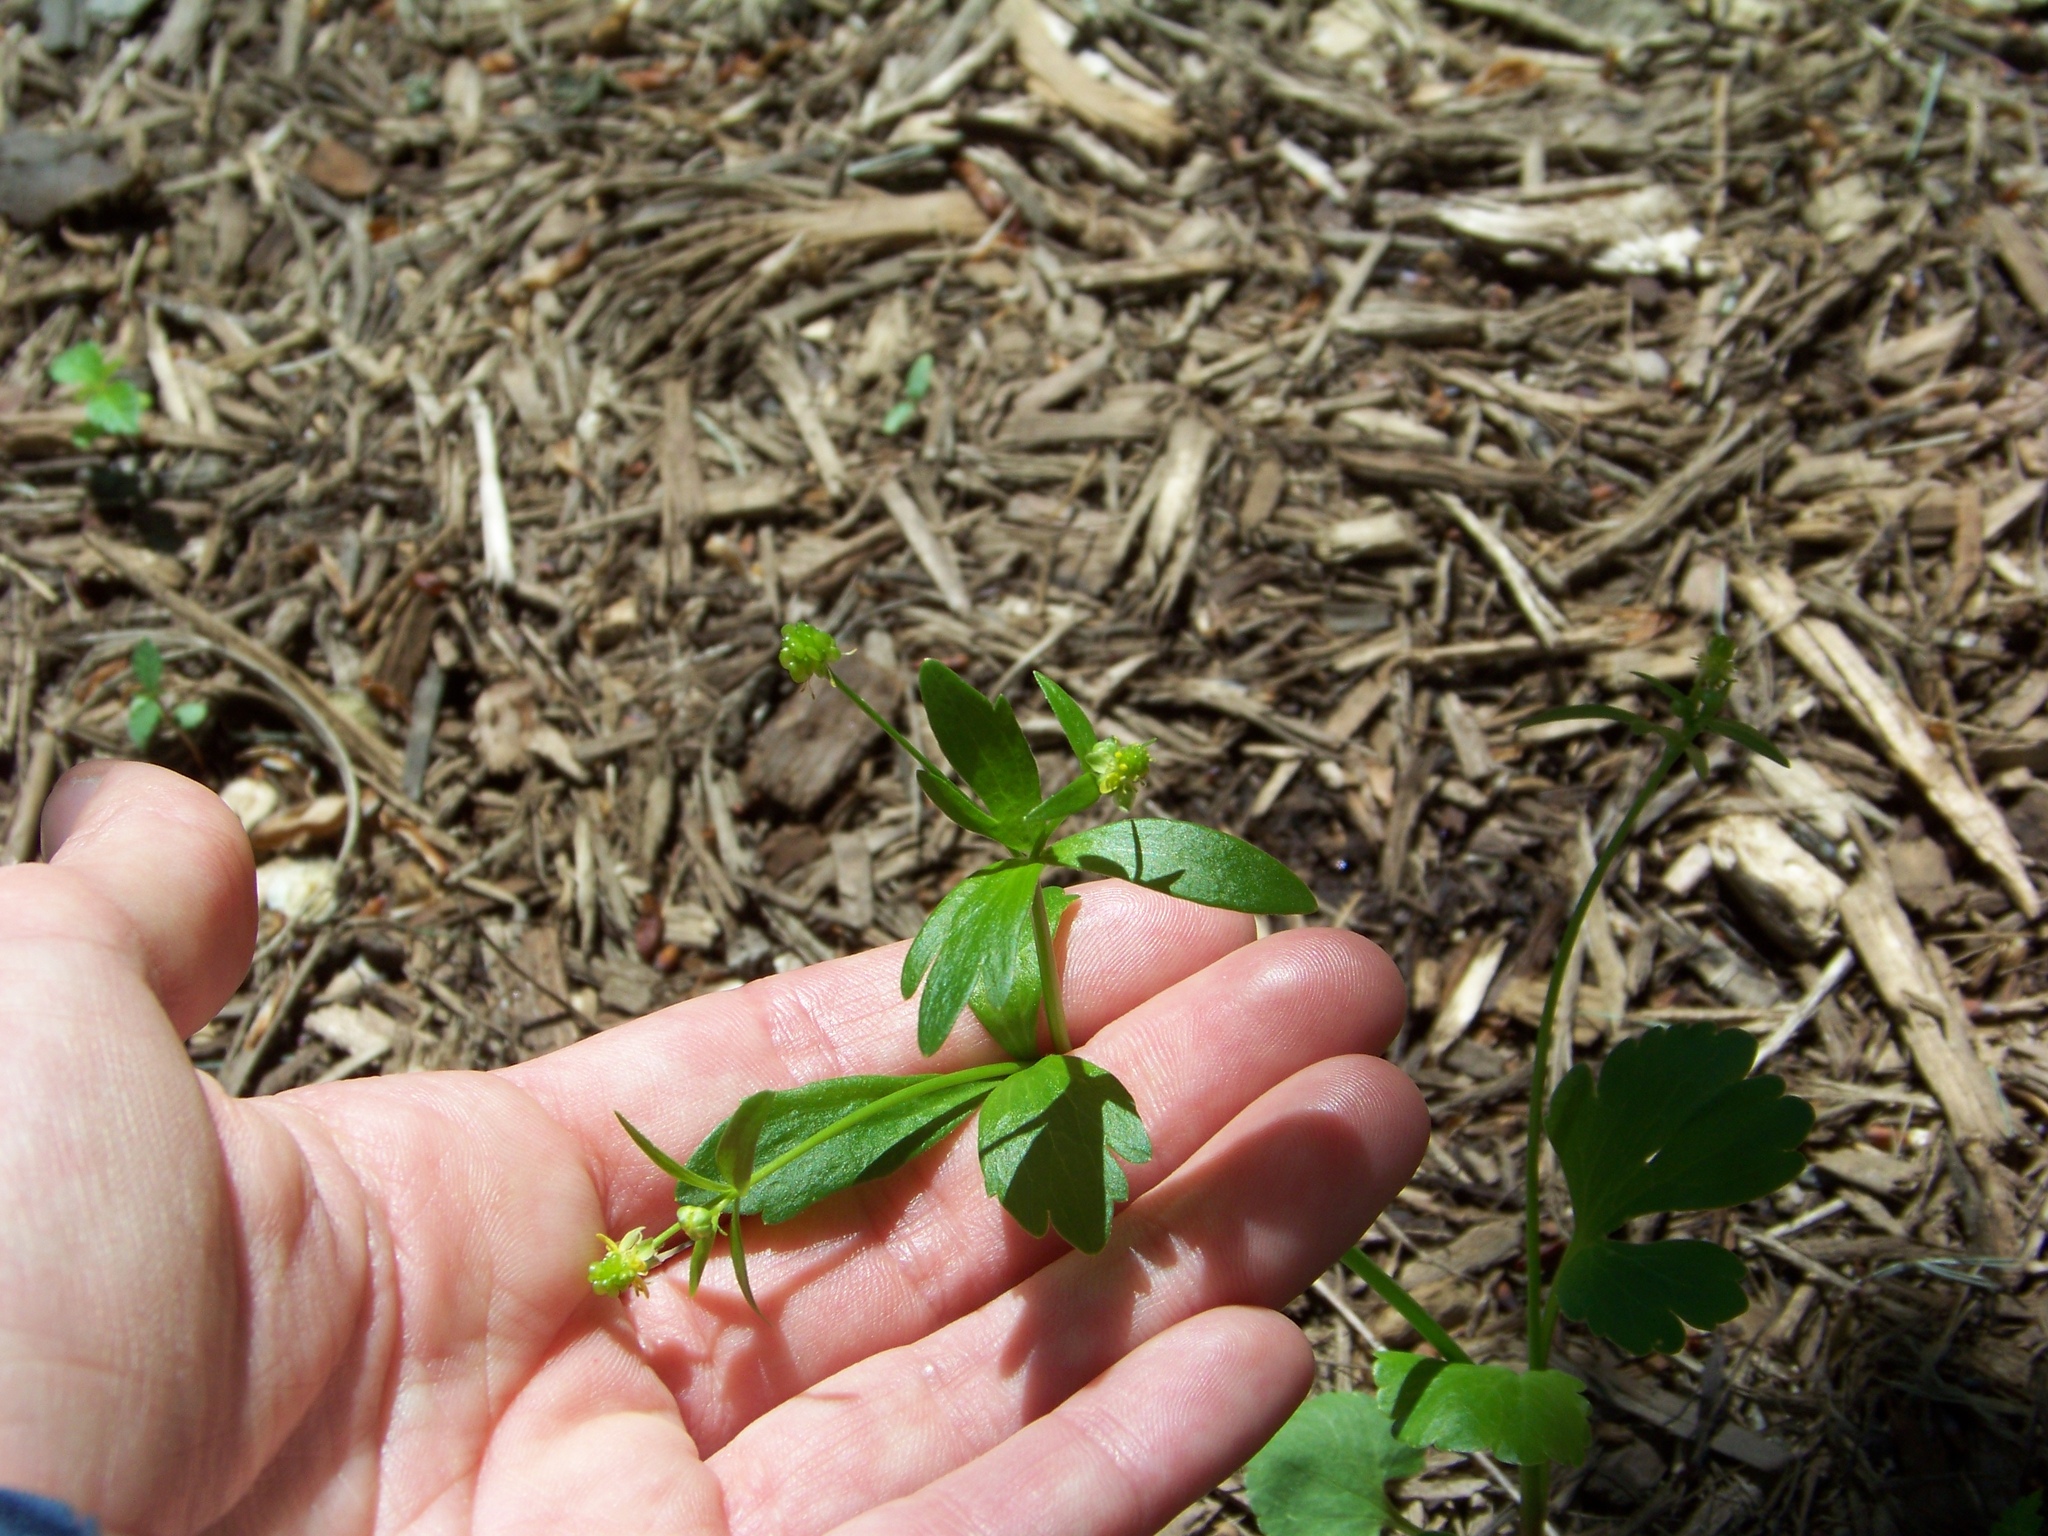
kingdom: Plantae
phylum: Tracheophyta
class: Magnoliopsida
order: Ranunculales
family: Ranunculaceae
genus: Ranunculus
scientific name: Ranunculus abortivus
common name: Early wood buttercup
